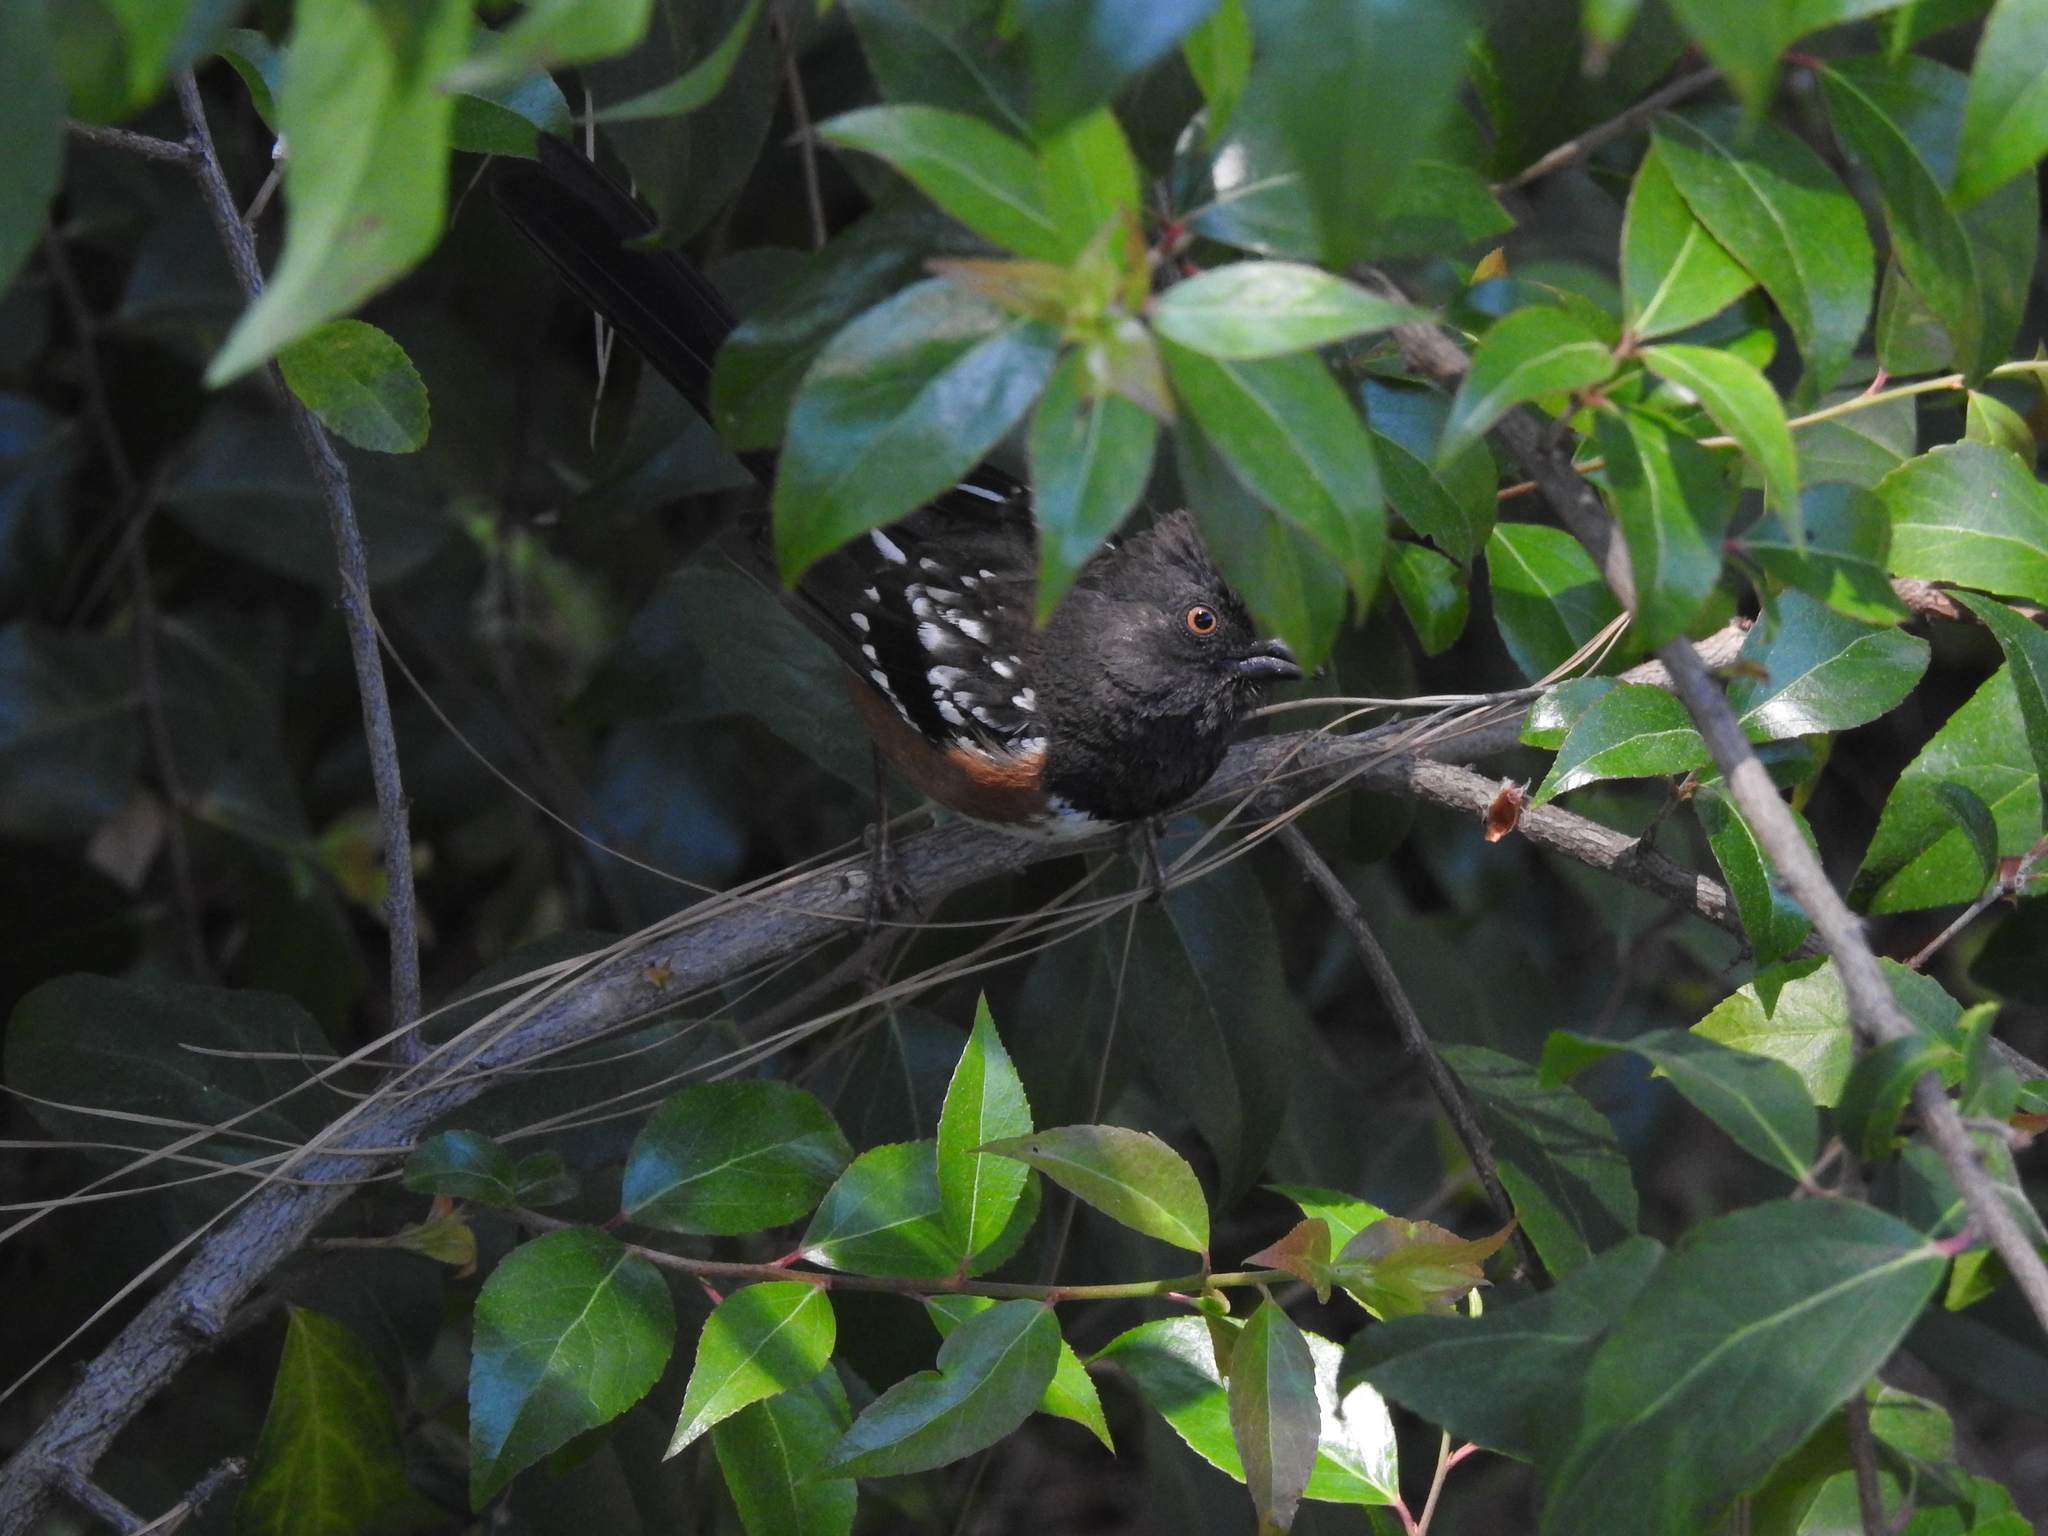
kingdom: Animalia
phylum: Chordata
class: Aves
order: Passeriformes
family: Passerellidae
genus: Pipilo
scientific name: Pipilo maculatus
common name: Spotted towhee
